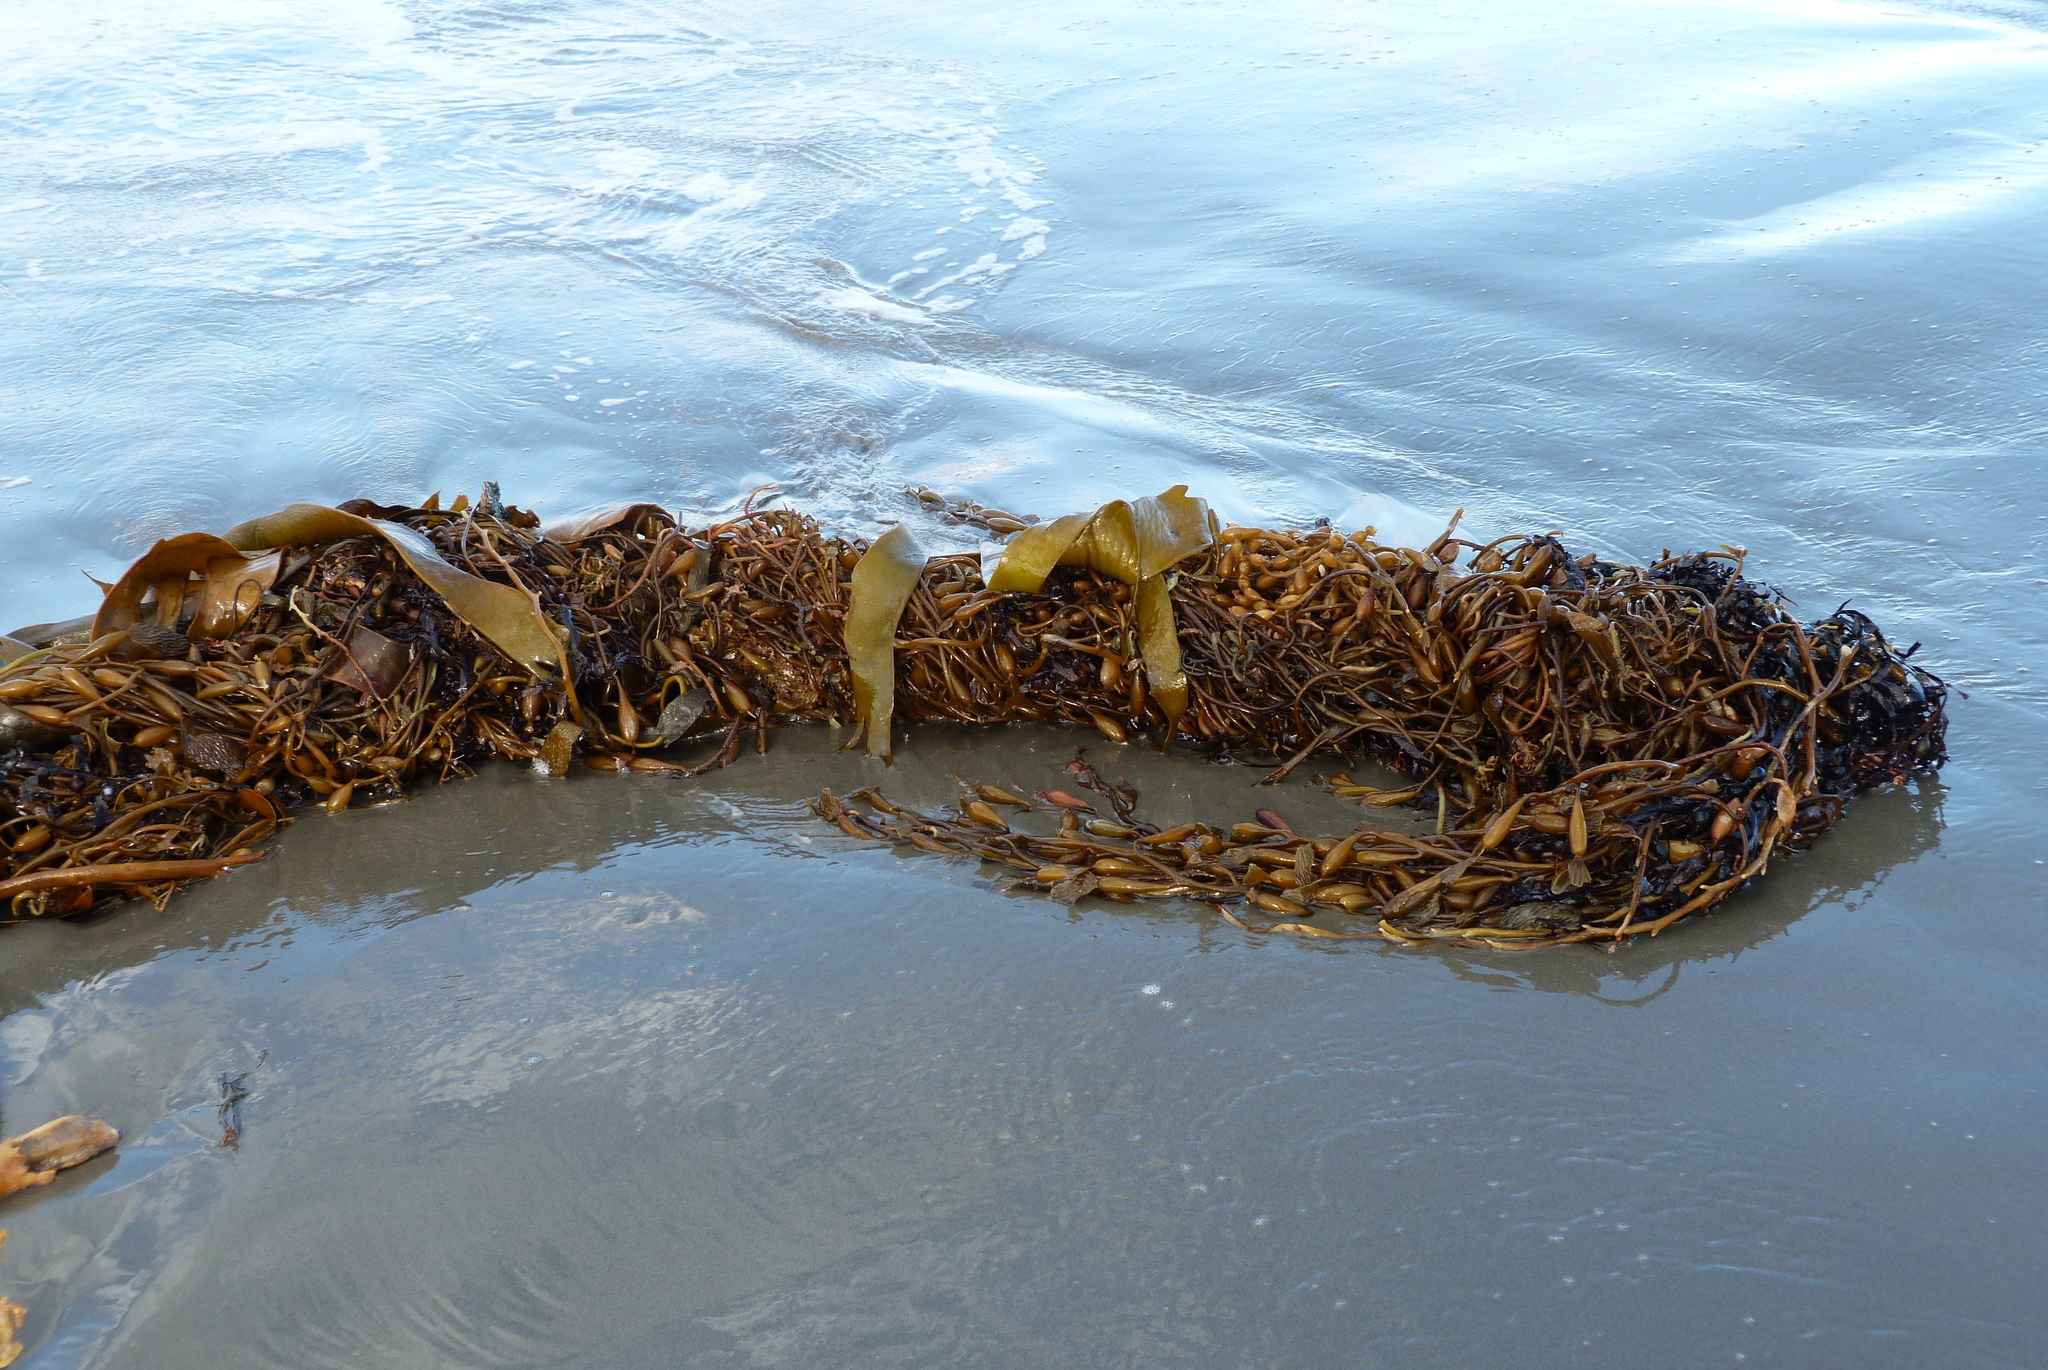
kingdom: Chromista
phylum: Ochrophyta
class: Phaeophyceae
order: Laminariales
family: Laminariaceae
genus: Macrocystis
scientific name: Macrocystis pyrifera
